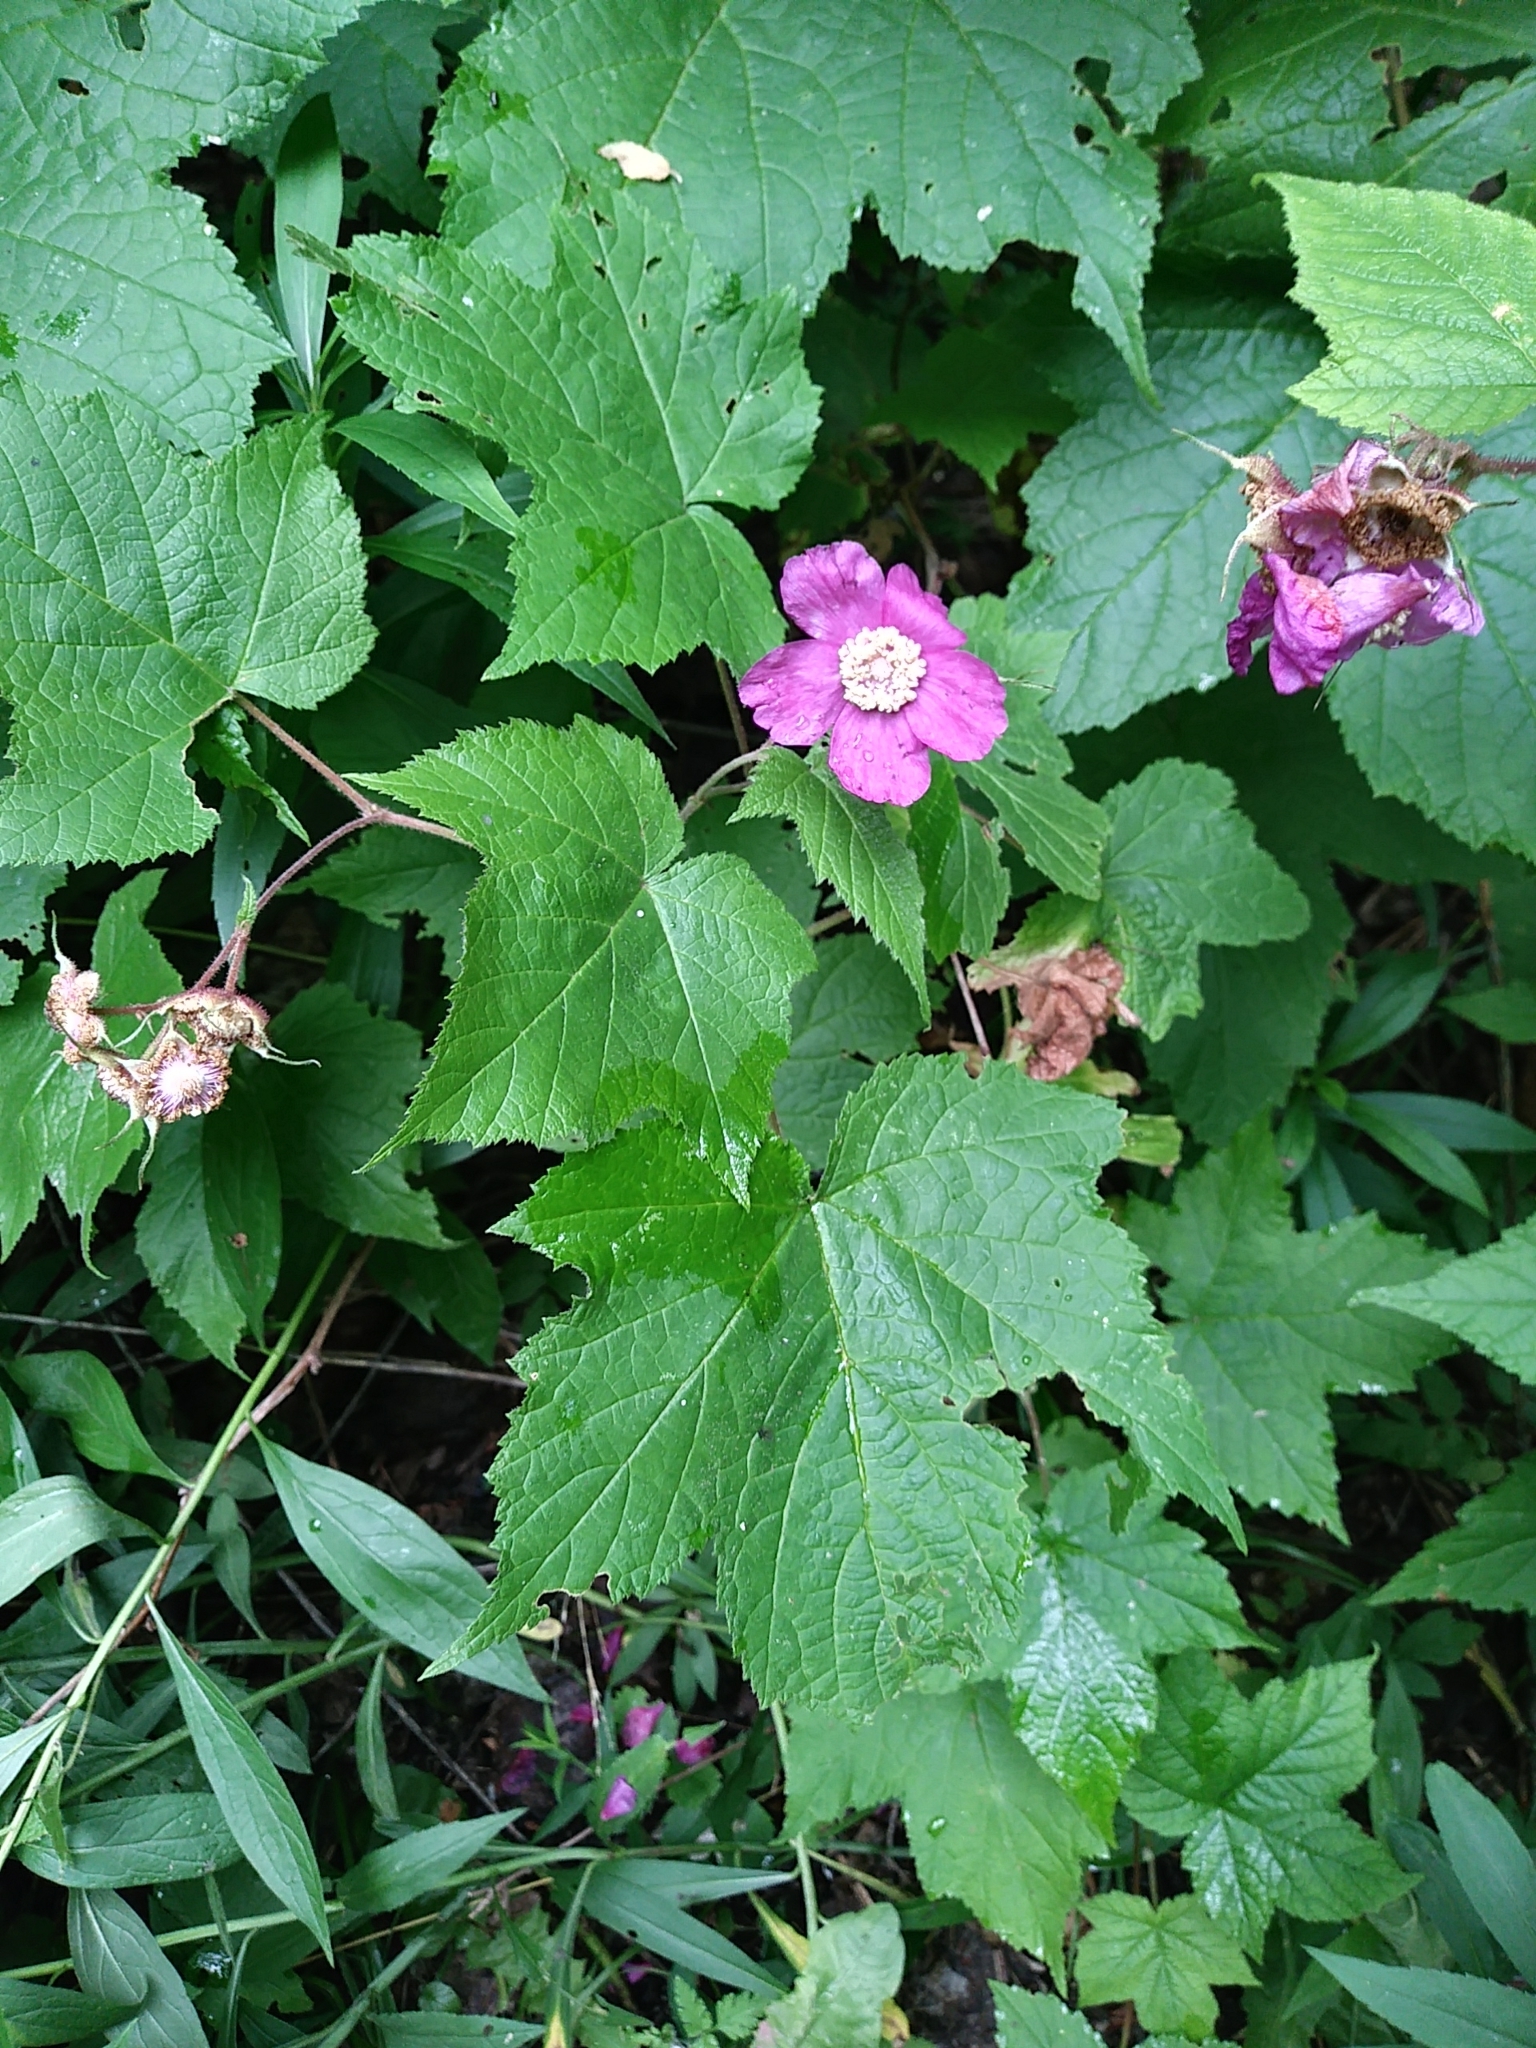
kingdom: Plantae
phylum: Tracheophyta
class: Magnoliopsida
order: Rosales
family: Rosaceae
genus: Rubus
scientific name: Rubus odoratus
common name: Purple-flowered raspberry
